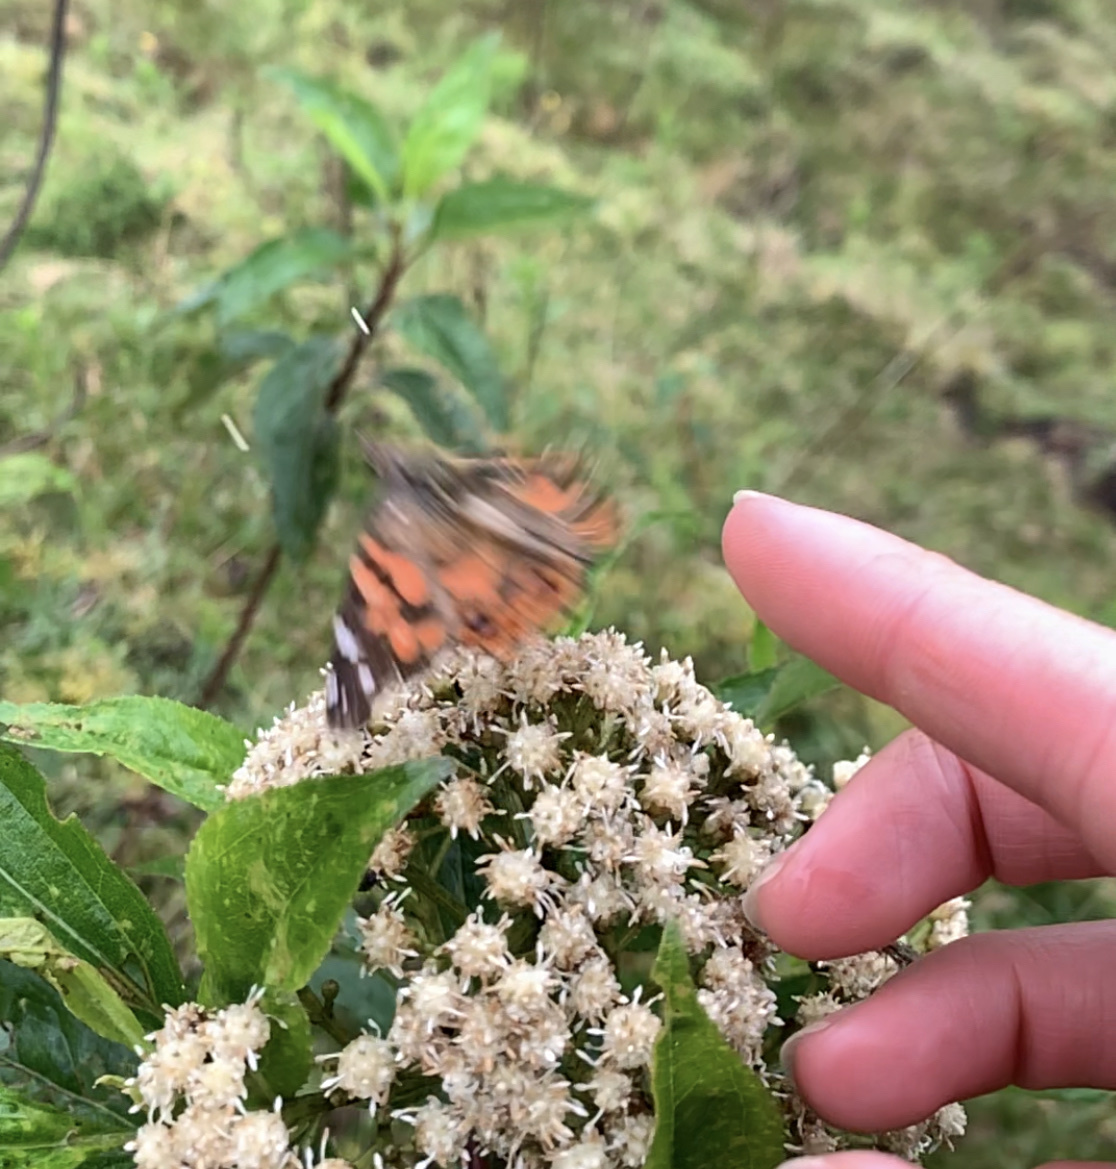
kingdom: Animalia
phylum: Arthropoda
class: Insecta
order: Lepidoptera
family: Nymphalidae
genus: Vanessa
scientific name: Vanessa braziliensis
